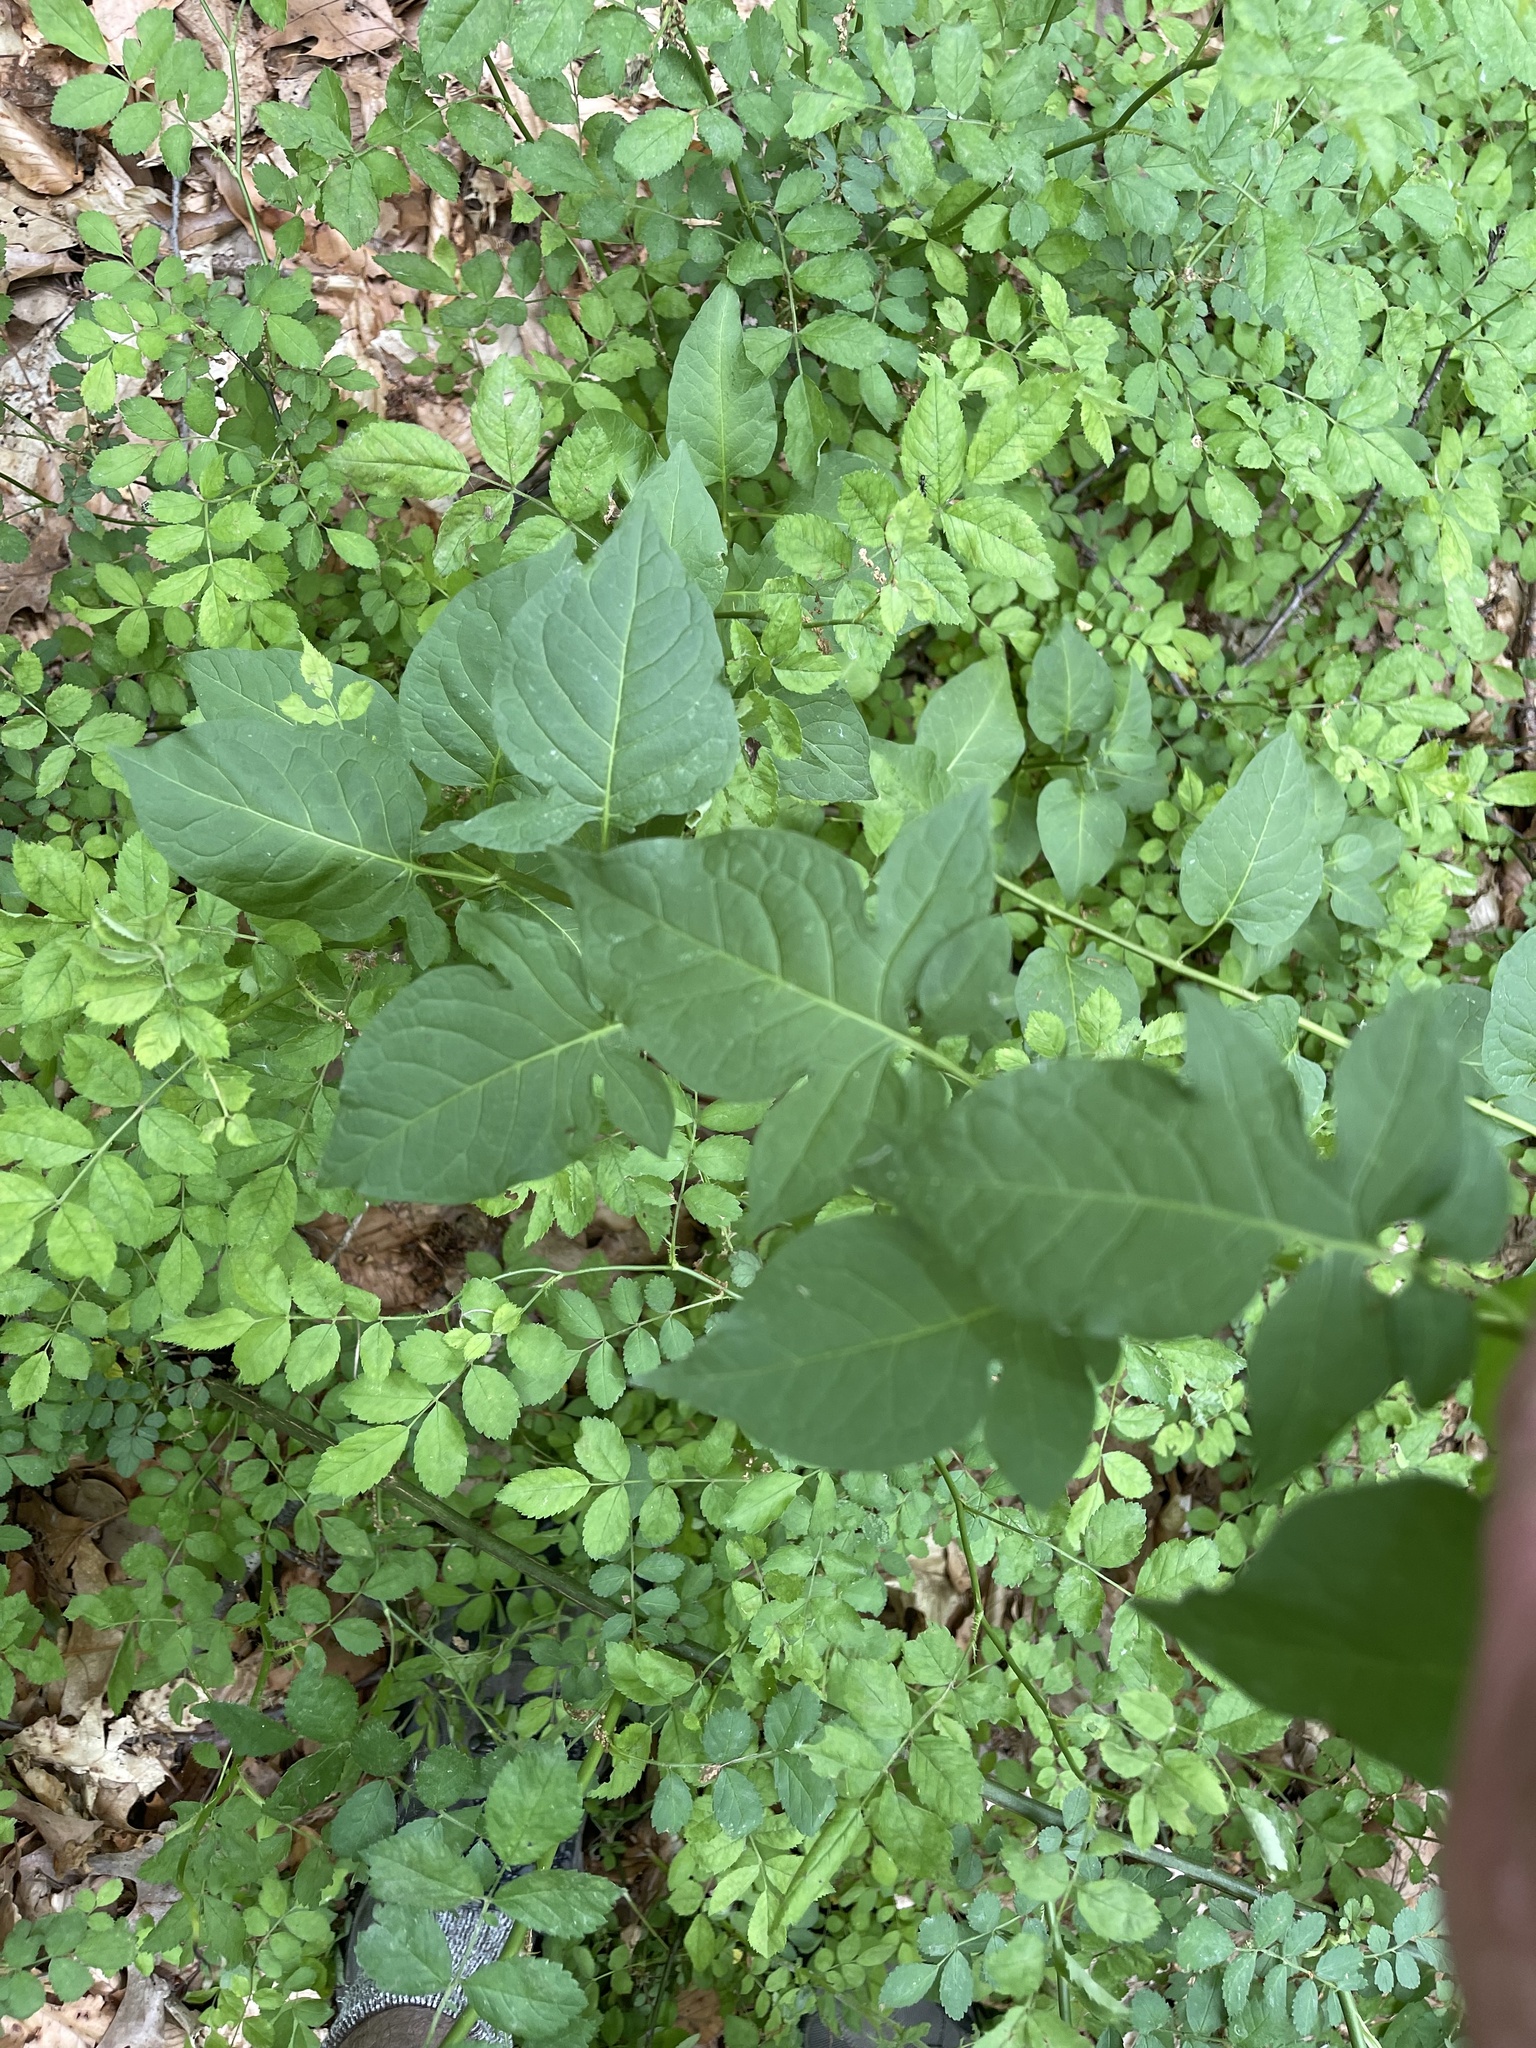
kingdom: Plantae
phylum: Tracheophyta
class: Magnoliopsida
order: Solanales
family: Solanaceae
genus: Solanum
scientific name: Solanum dulcamara
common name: Climbing nightshade
